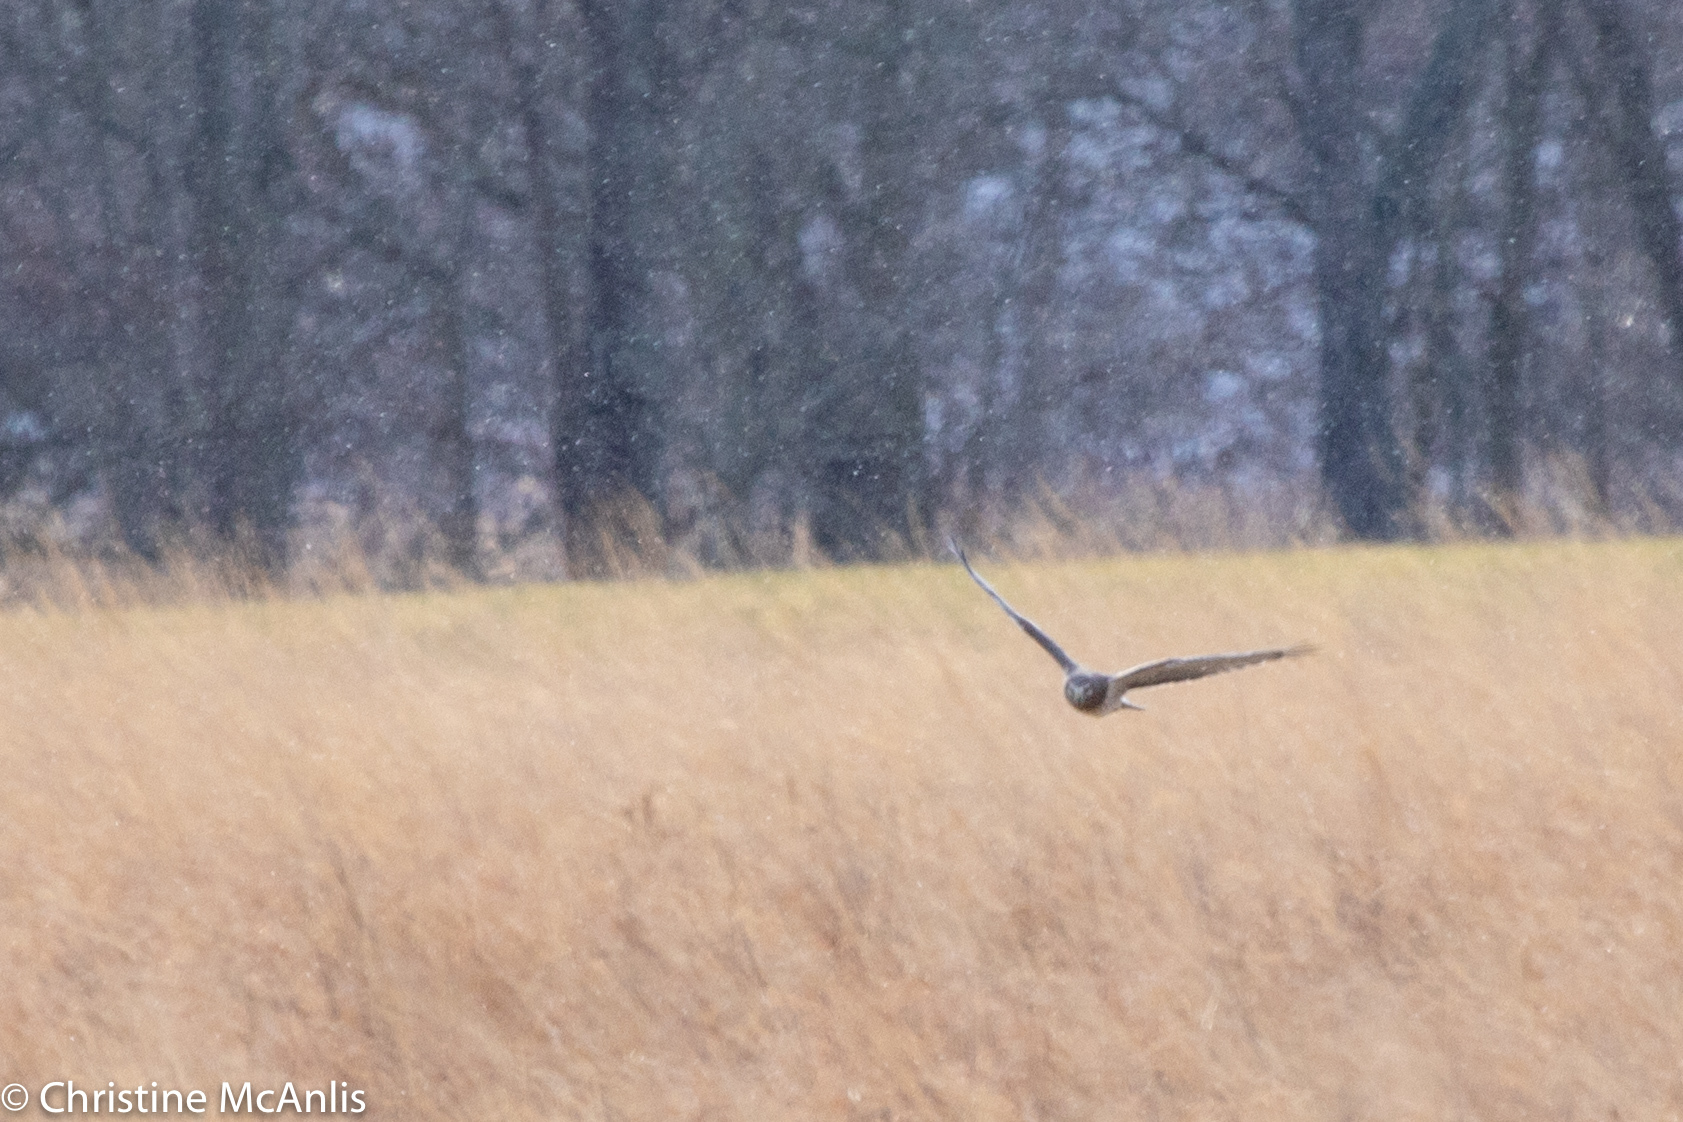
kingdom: Animalia
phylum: Chordata
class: Aves
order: Accipitriformes
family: Accipitridae
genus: Circus
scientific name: Circus cyaneus
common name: Hen harrier
